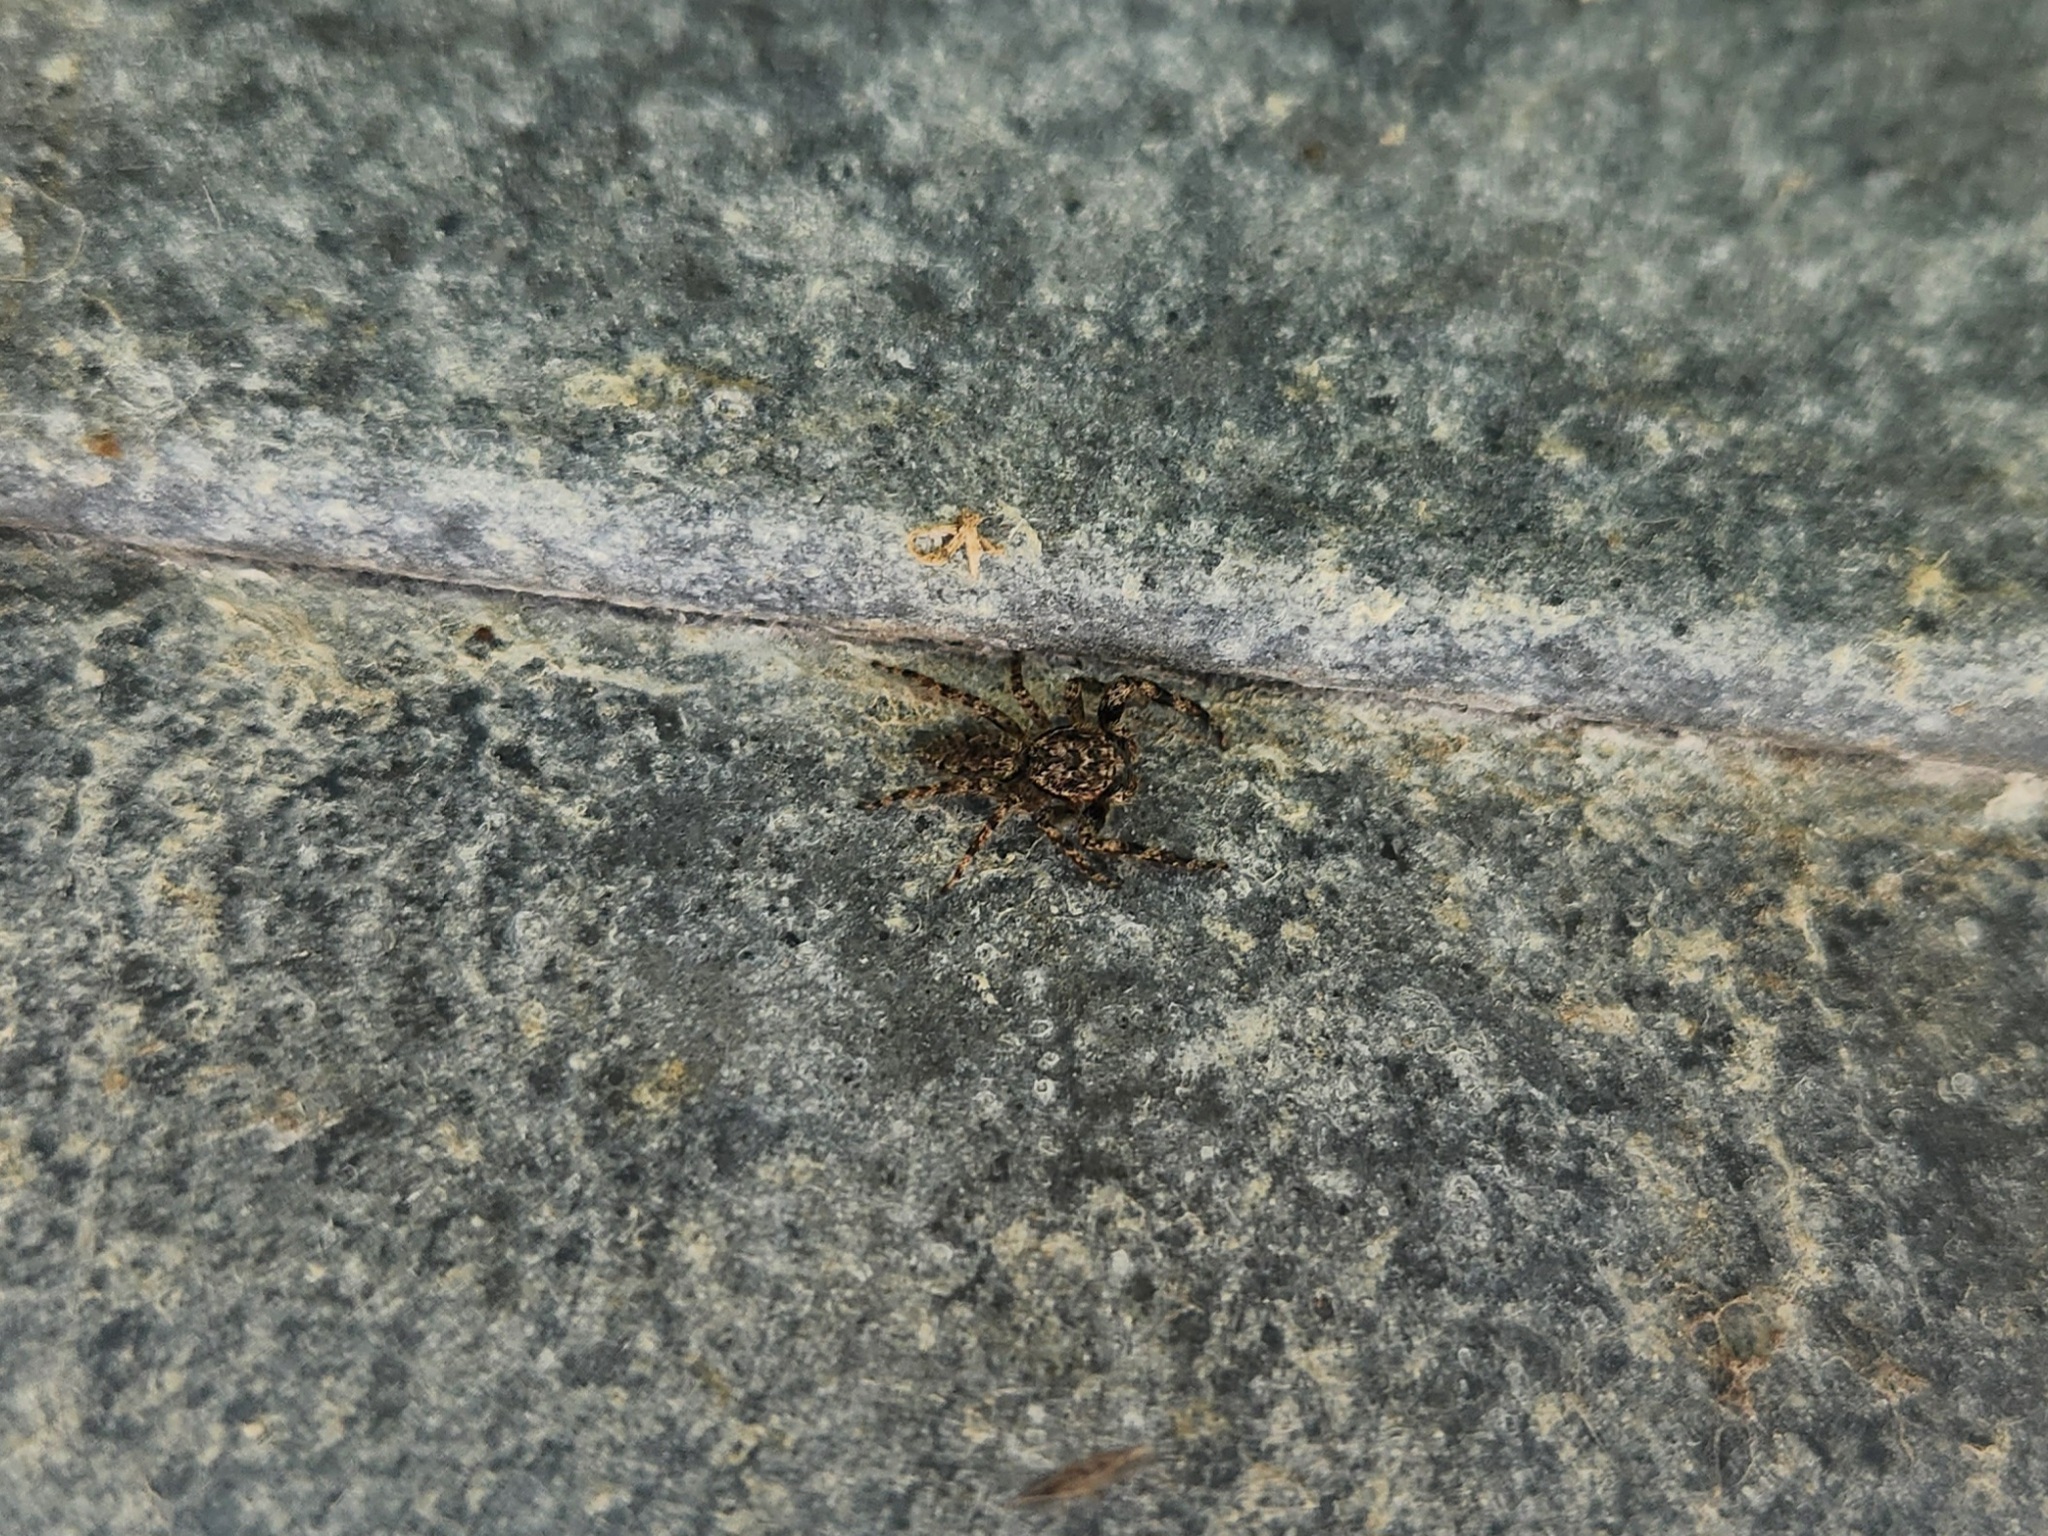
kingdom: Animalia
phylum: Arthropoda
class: Arachnida
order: Araneae
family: Salticidae
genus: Platycryptus
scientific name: Platycryptus undatus
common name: Tan jumping spider
